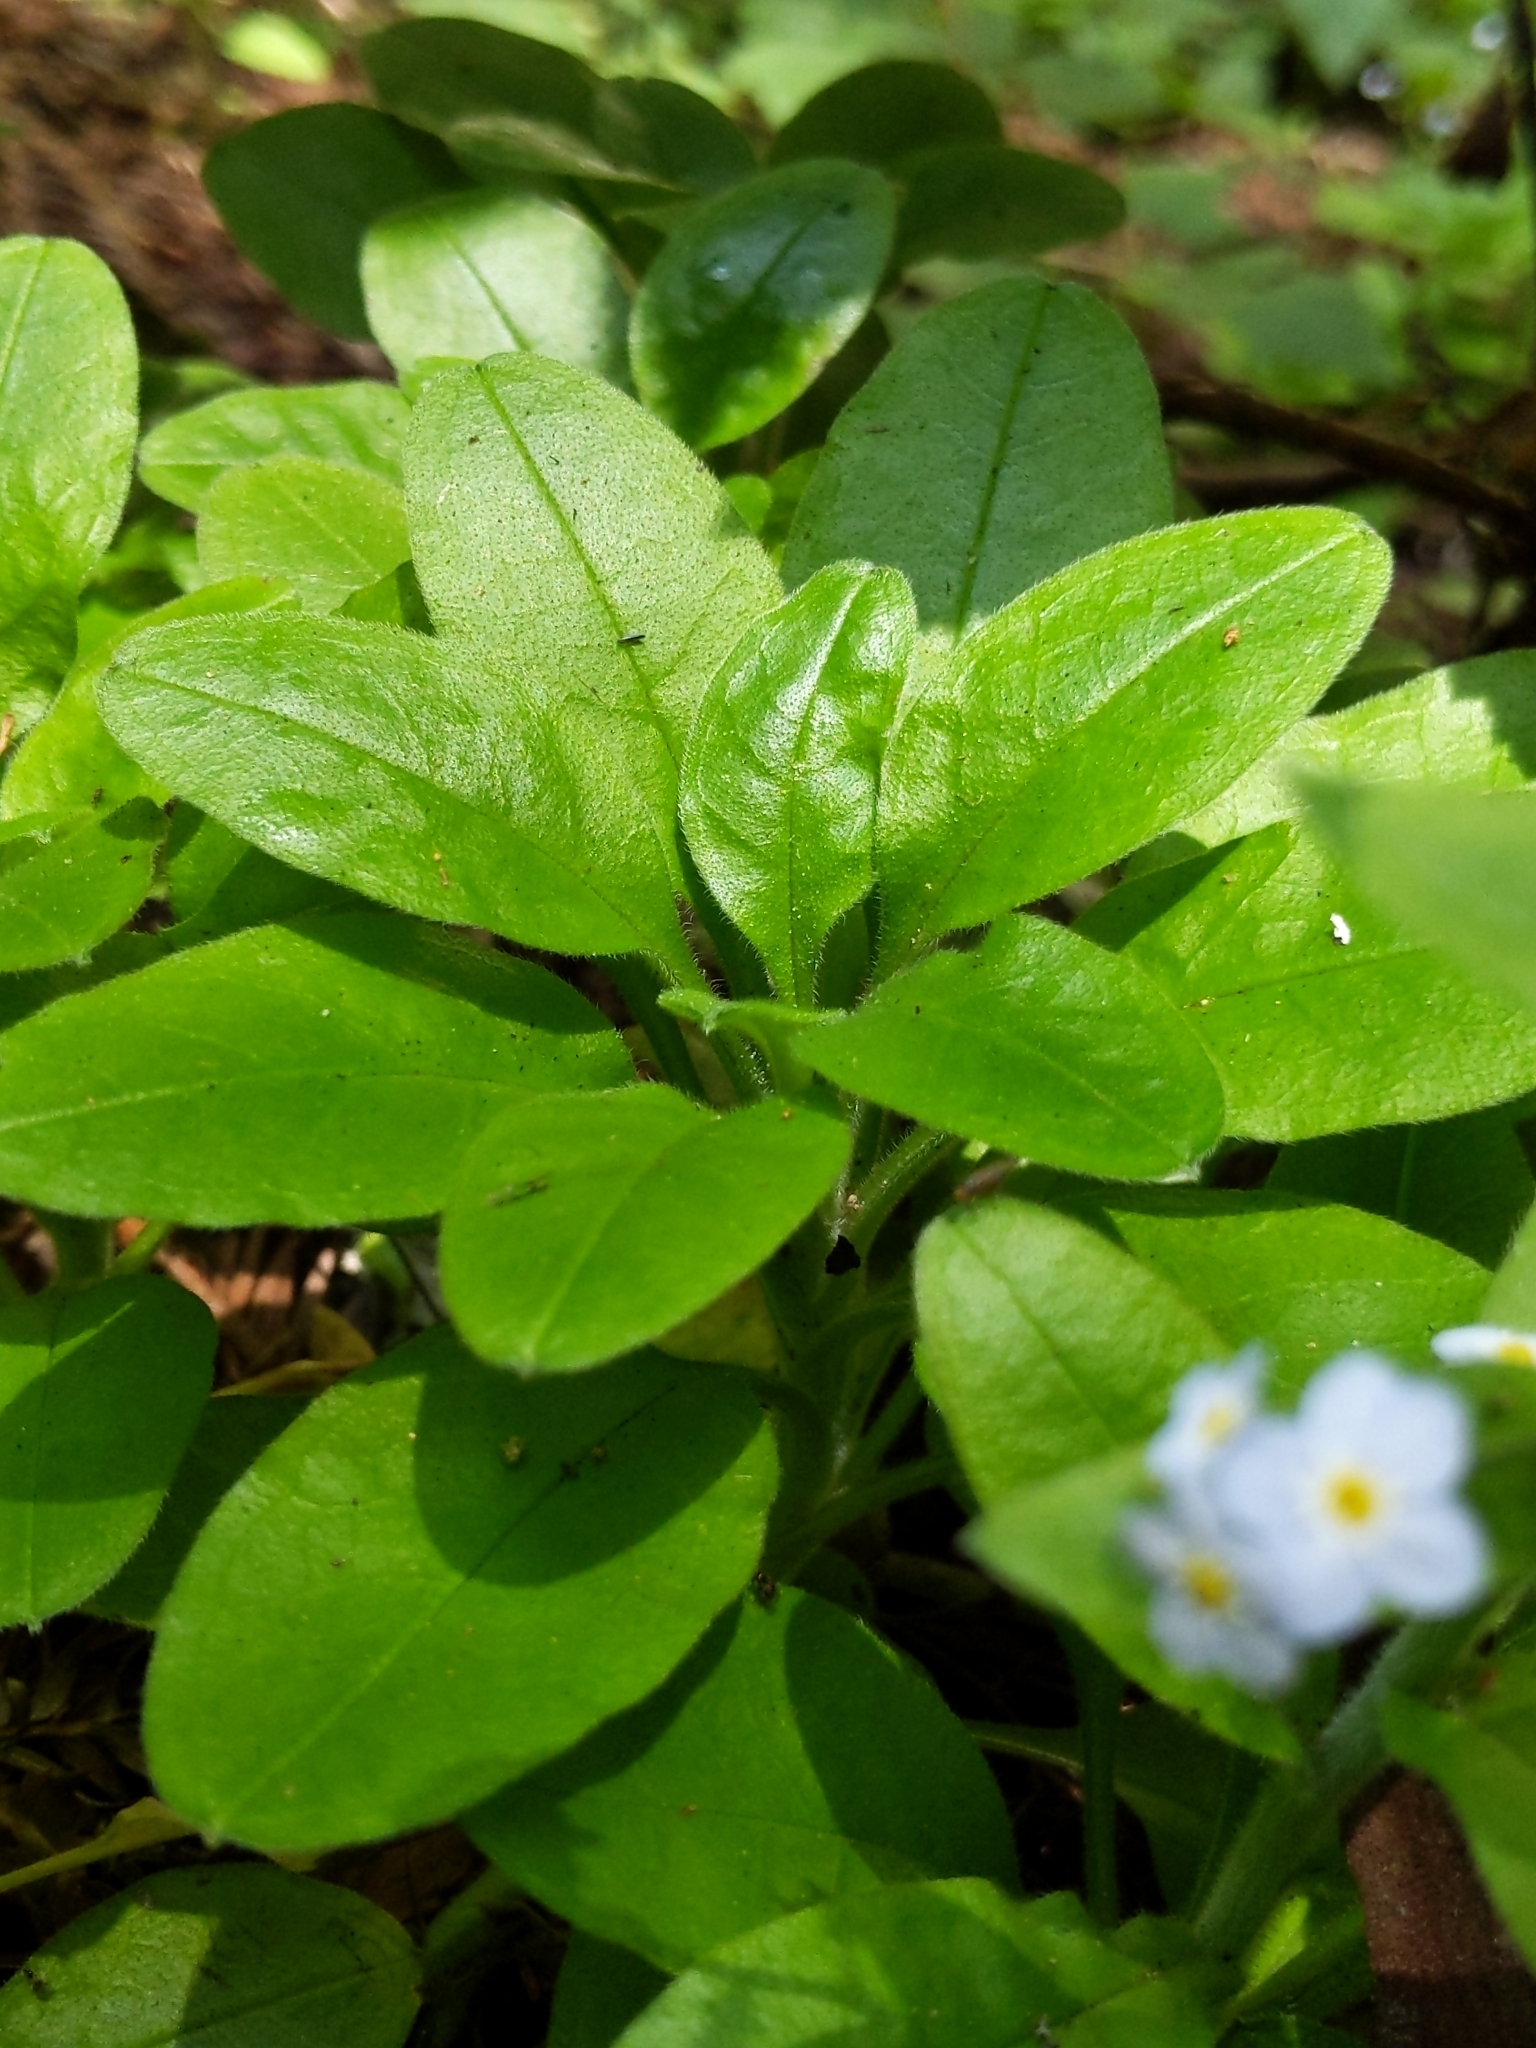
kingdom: Plantae
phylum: Tracheophyta
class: Magnoliopsida
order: Boraginales
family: Boraginaceae
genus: Myosotis
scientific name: Myosotis latifolia
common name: Broadleaf forget-me-not
